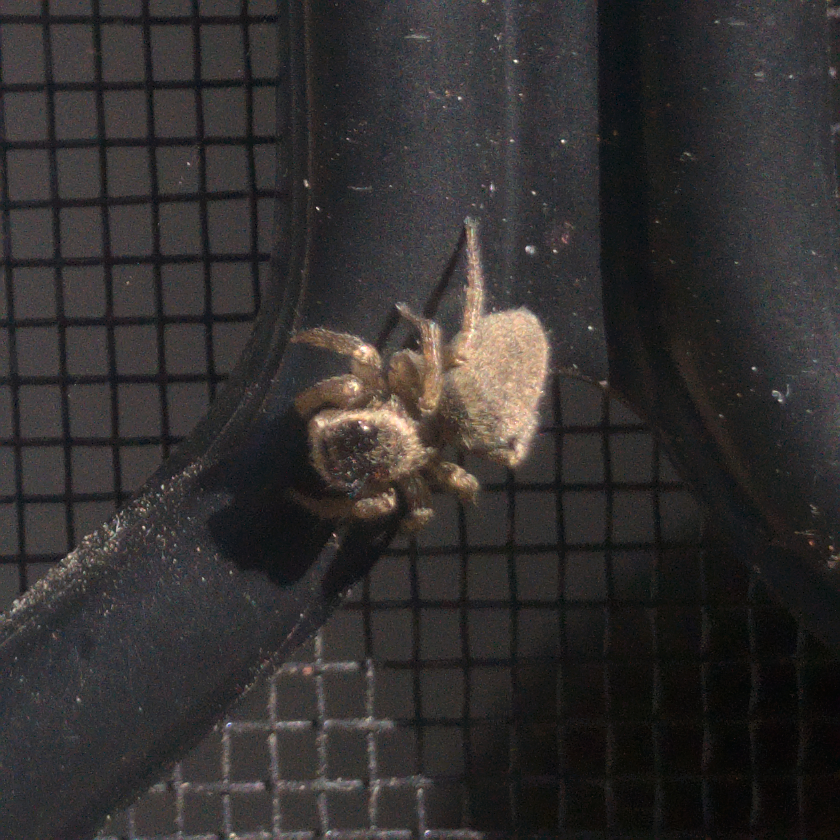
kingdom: Animalia
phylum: Arthropoda
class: Arachnida
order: Araneae
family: Salticidae
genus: Maratus
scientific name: Maratus griseus
